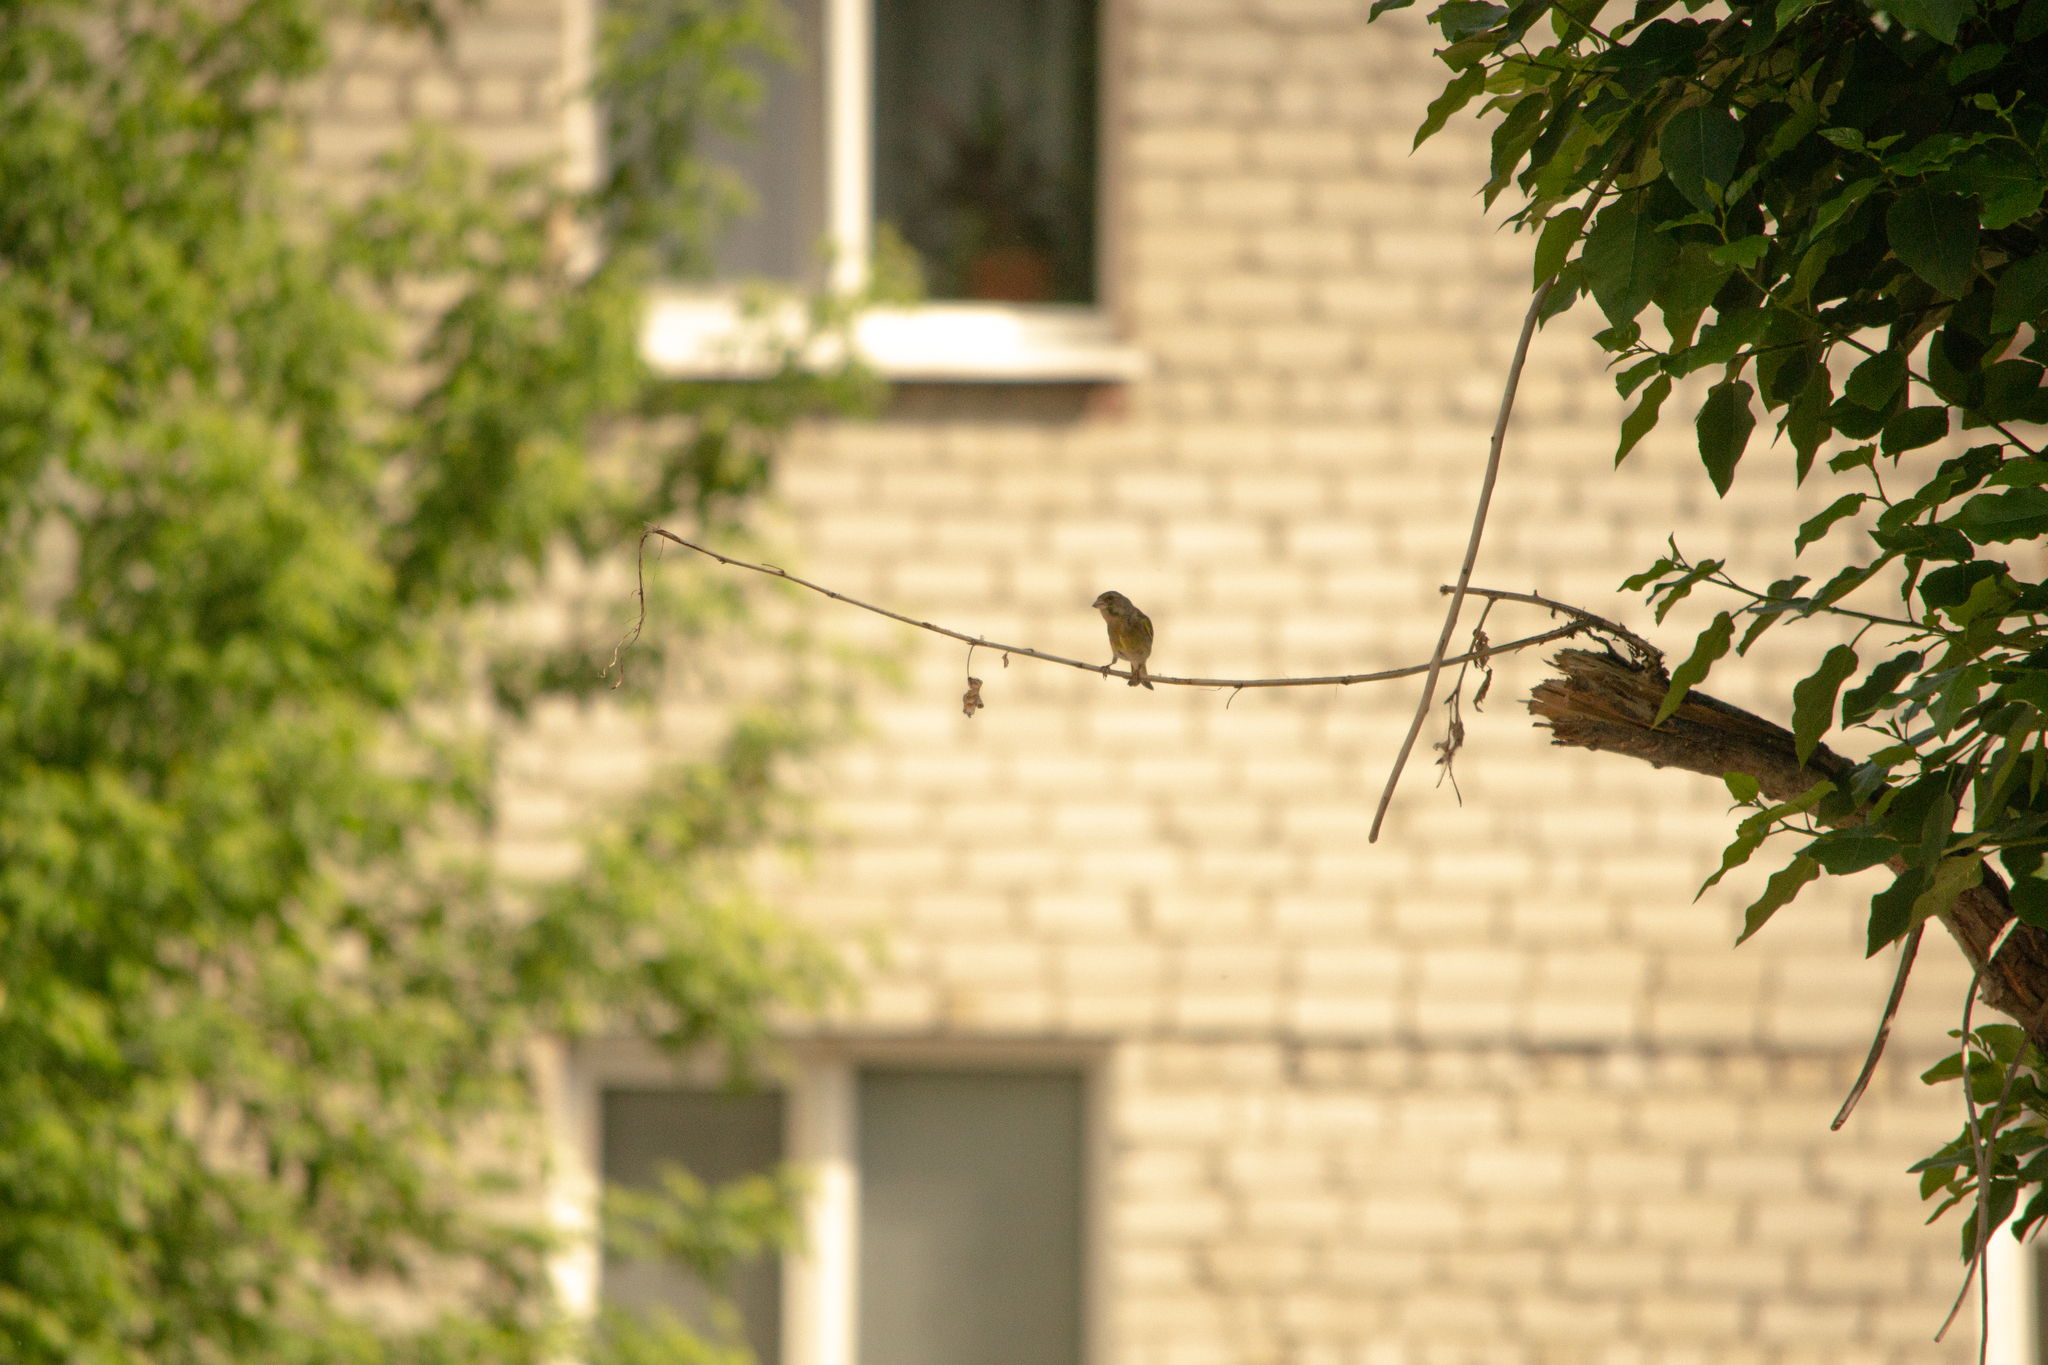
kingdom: Plantae
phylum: Tracheophyta
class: Liliopsida
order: Poales
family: Poaceae
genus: Chloris
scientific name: Chloris chloris
